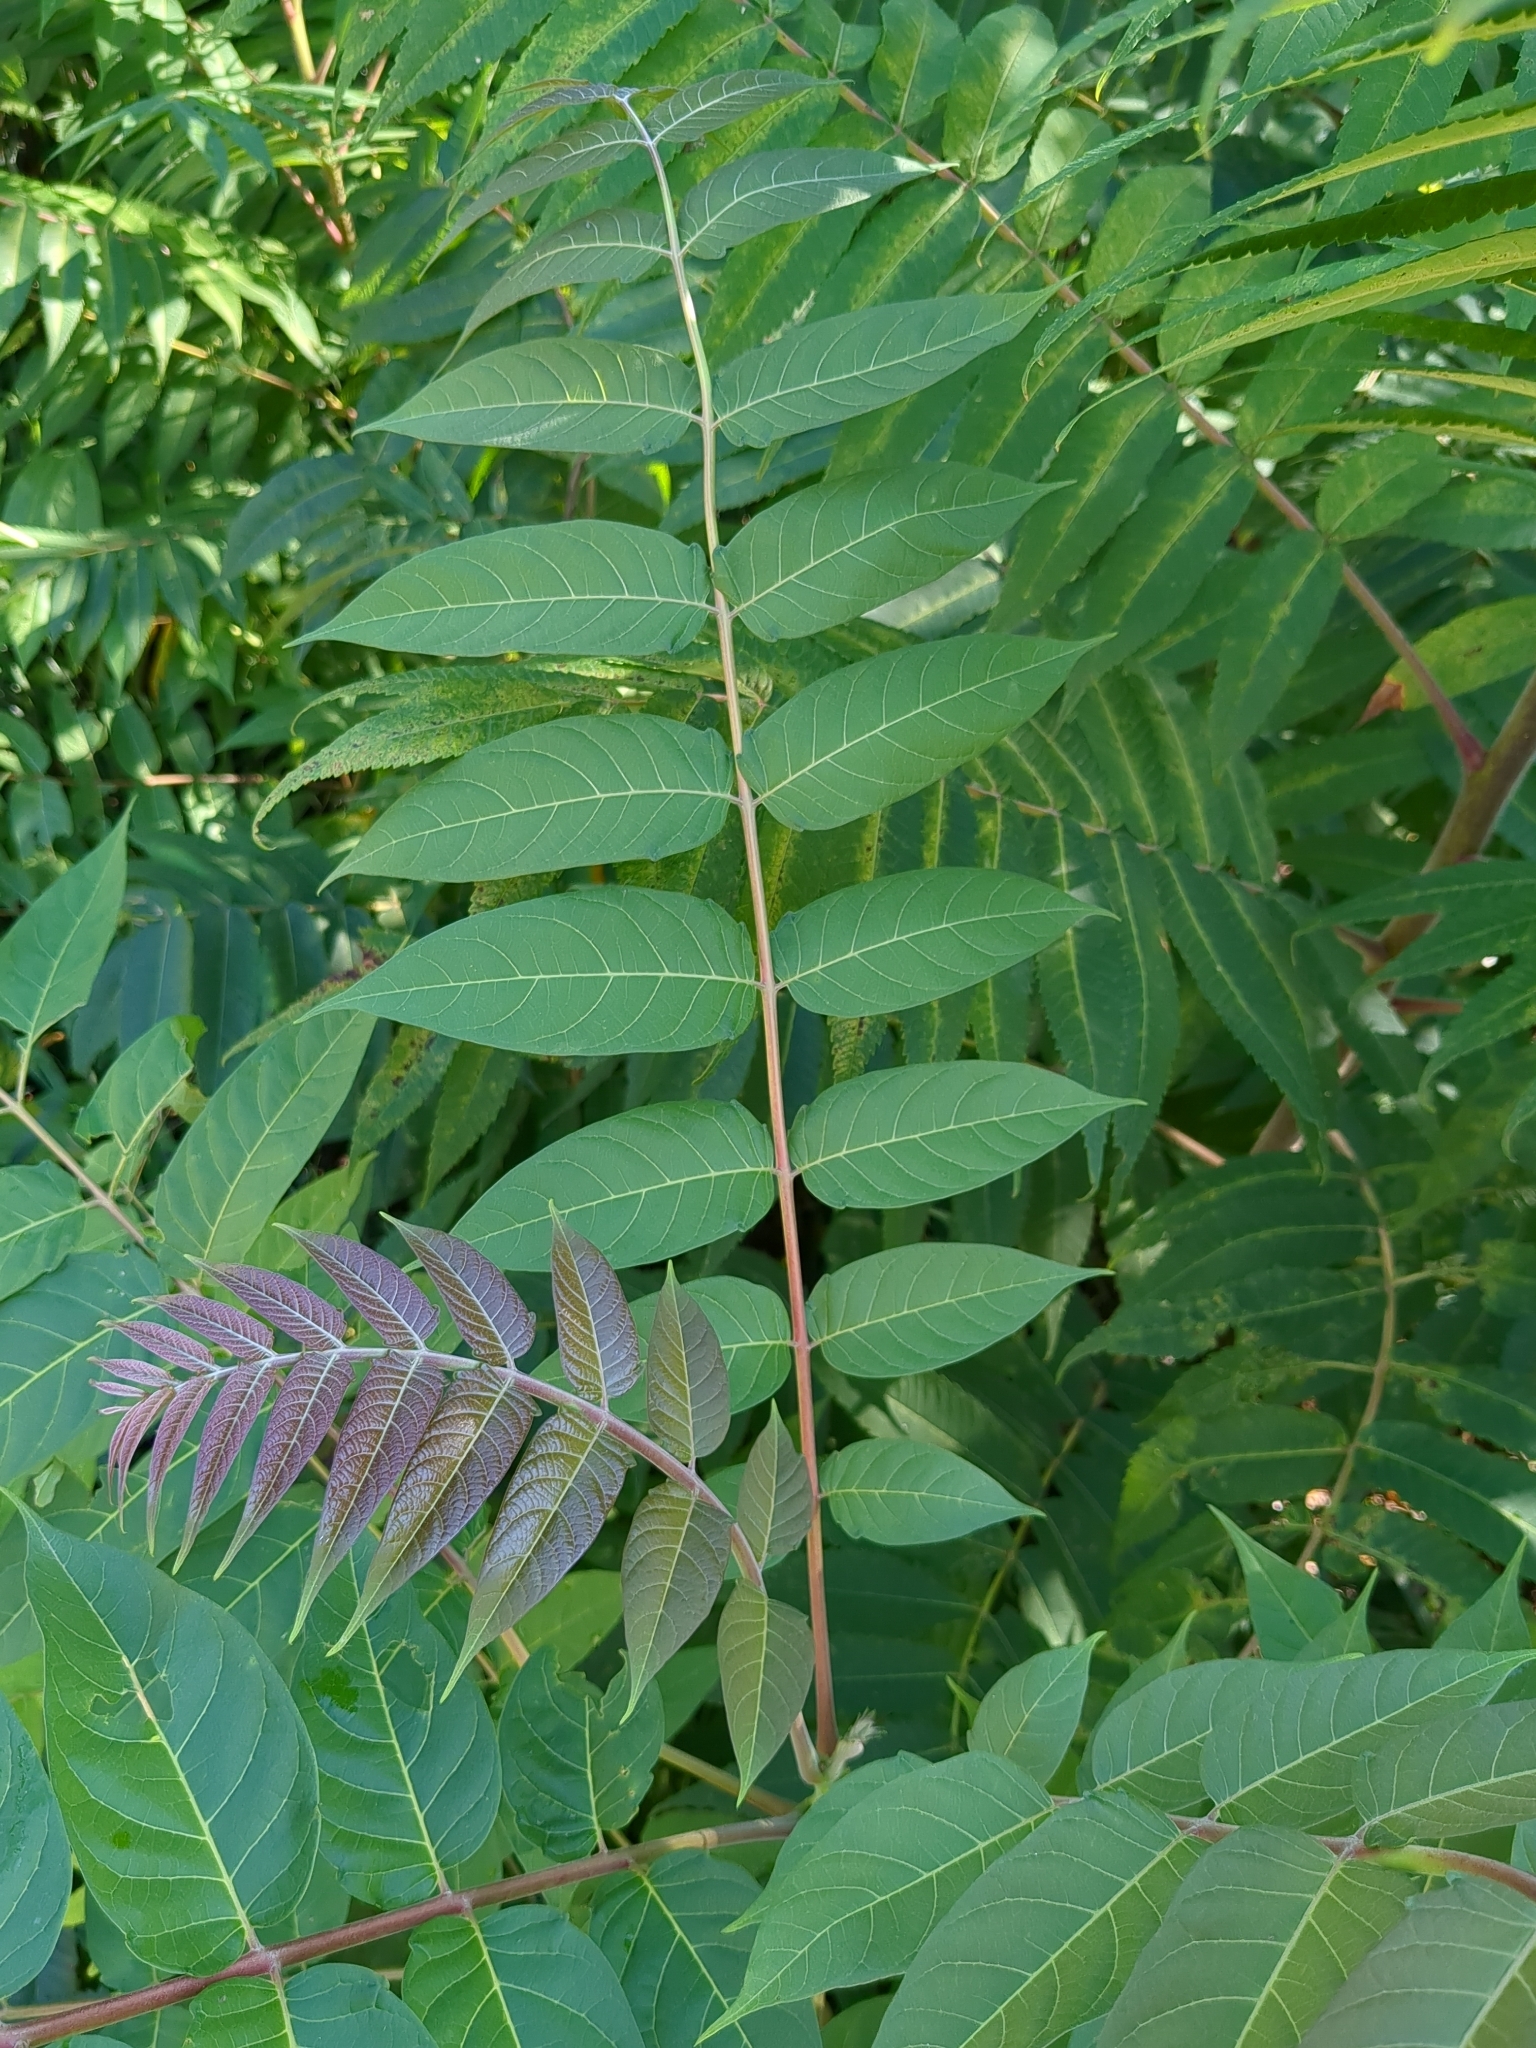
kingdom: Plantae
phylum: Tracheophyta
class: Magnoliopsida
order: Sapindales
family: Simaroubaceae
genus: Ailanthus
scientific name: Ailanthus altissima
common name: Tree-of-heaven
